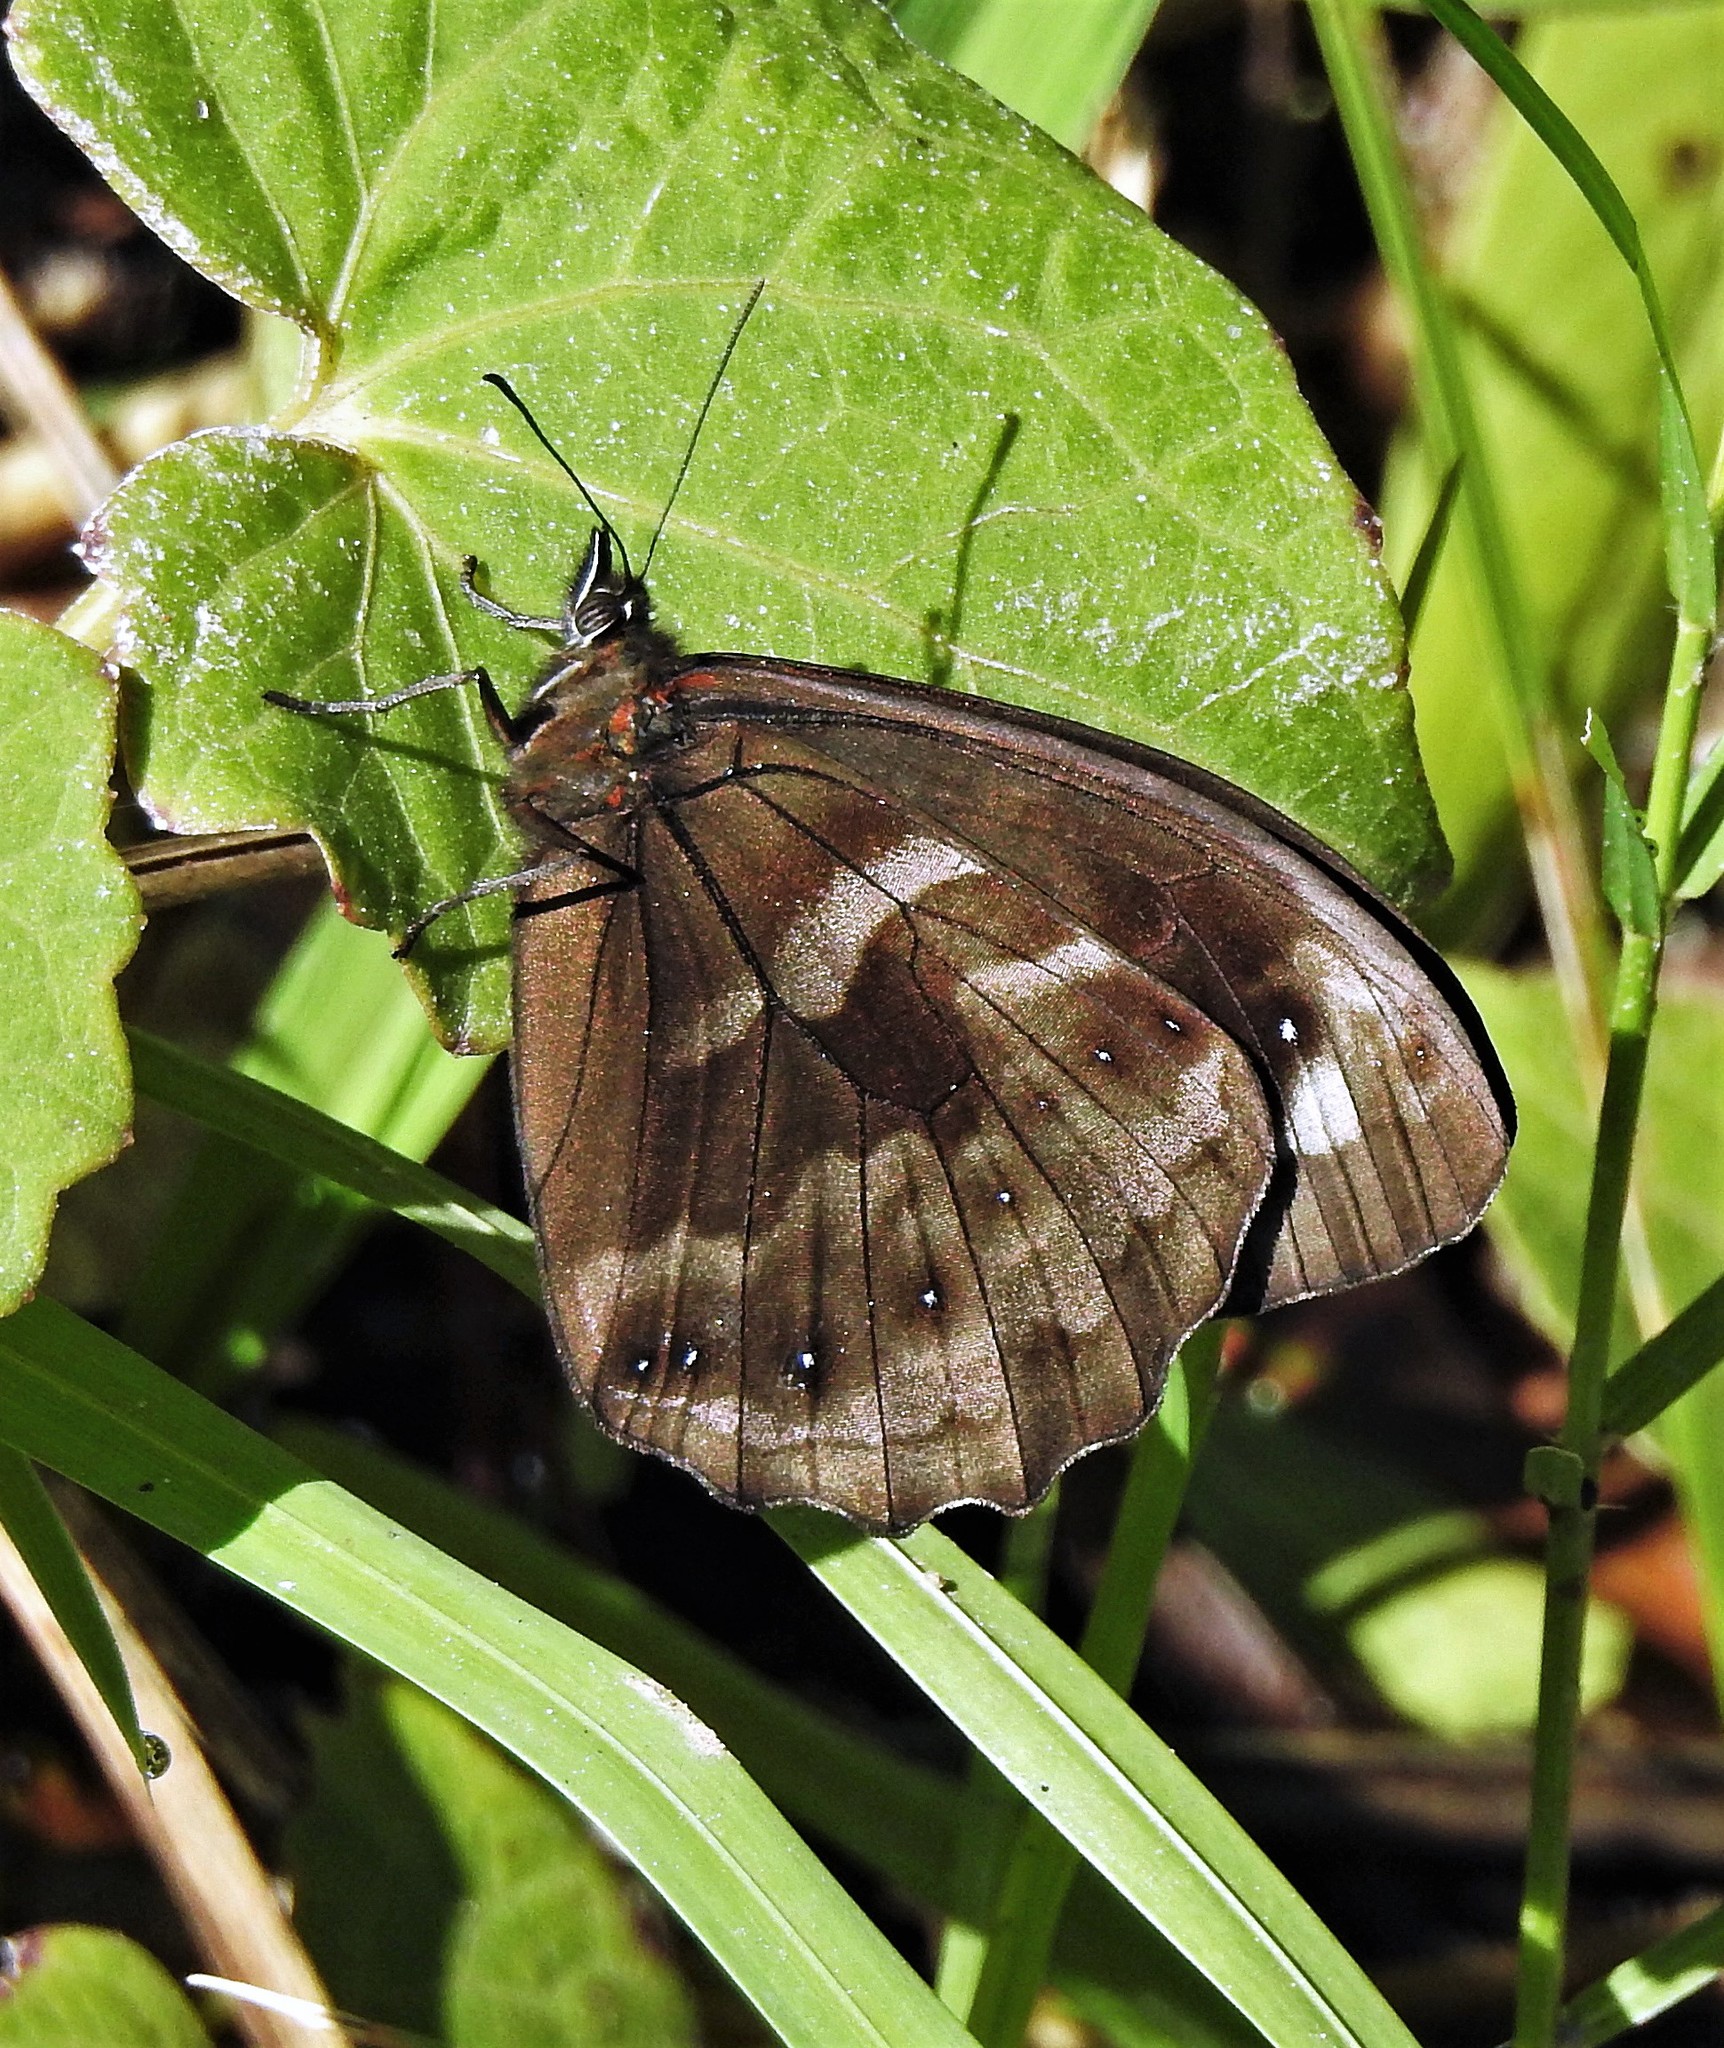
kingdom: Animalia
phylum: Arthropoda
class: Insecta
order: Lepidoptera
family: Nymphalidae
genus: Pronophila
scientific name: Pronophila unifasciata
